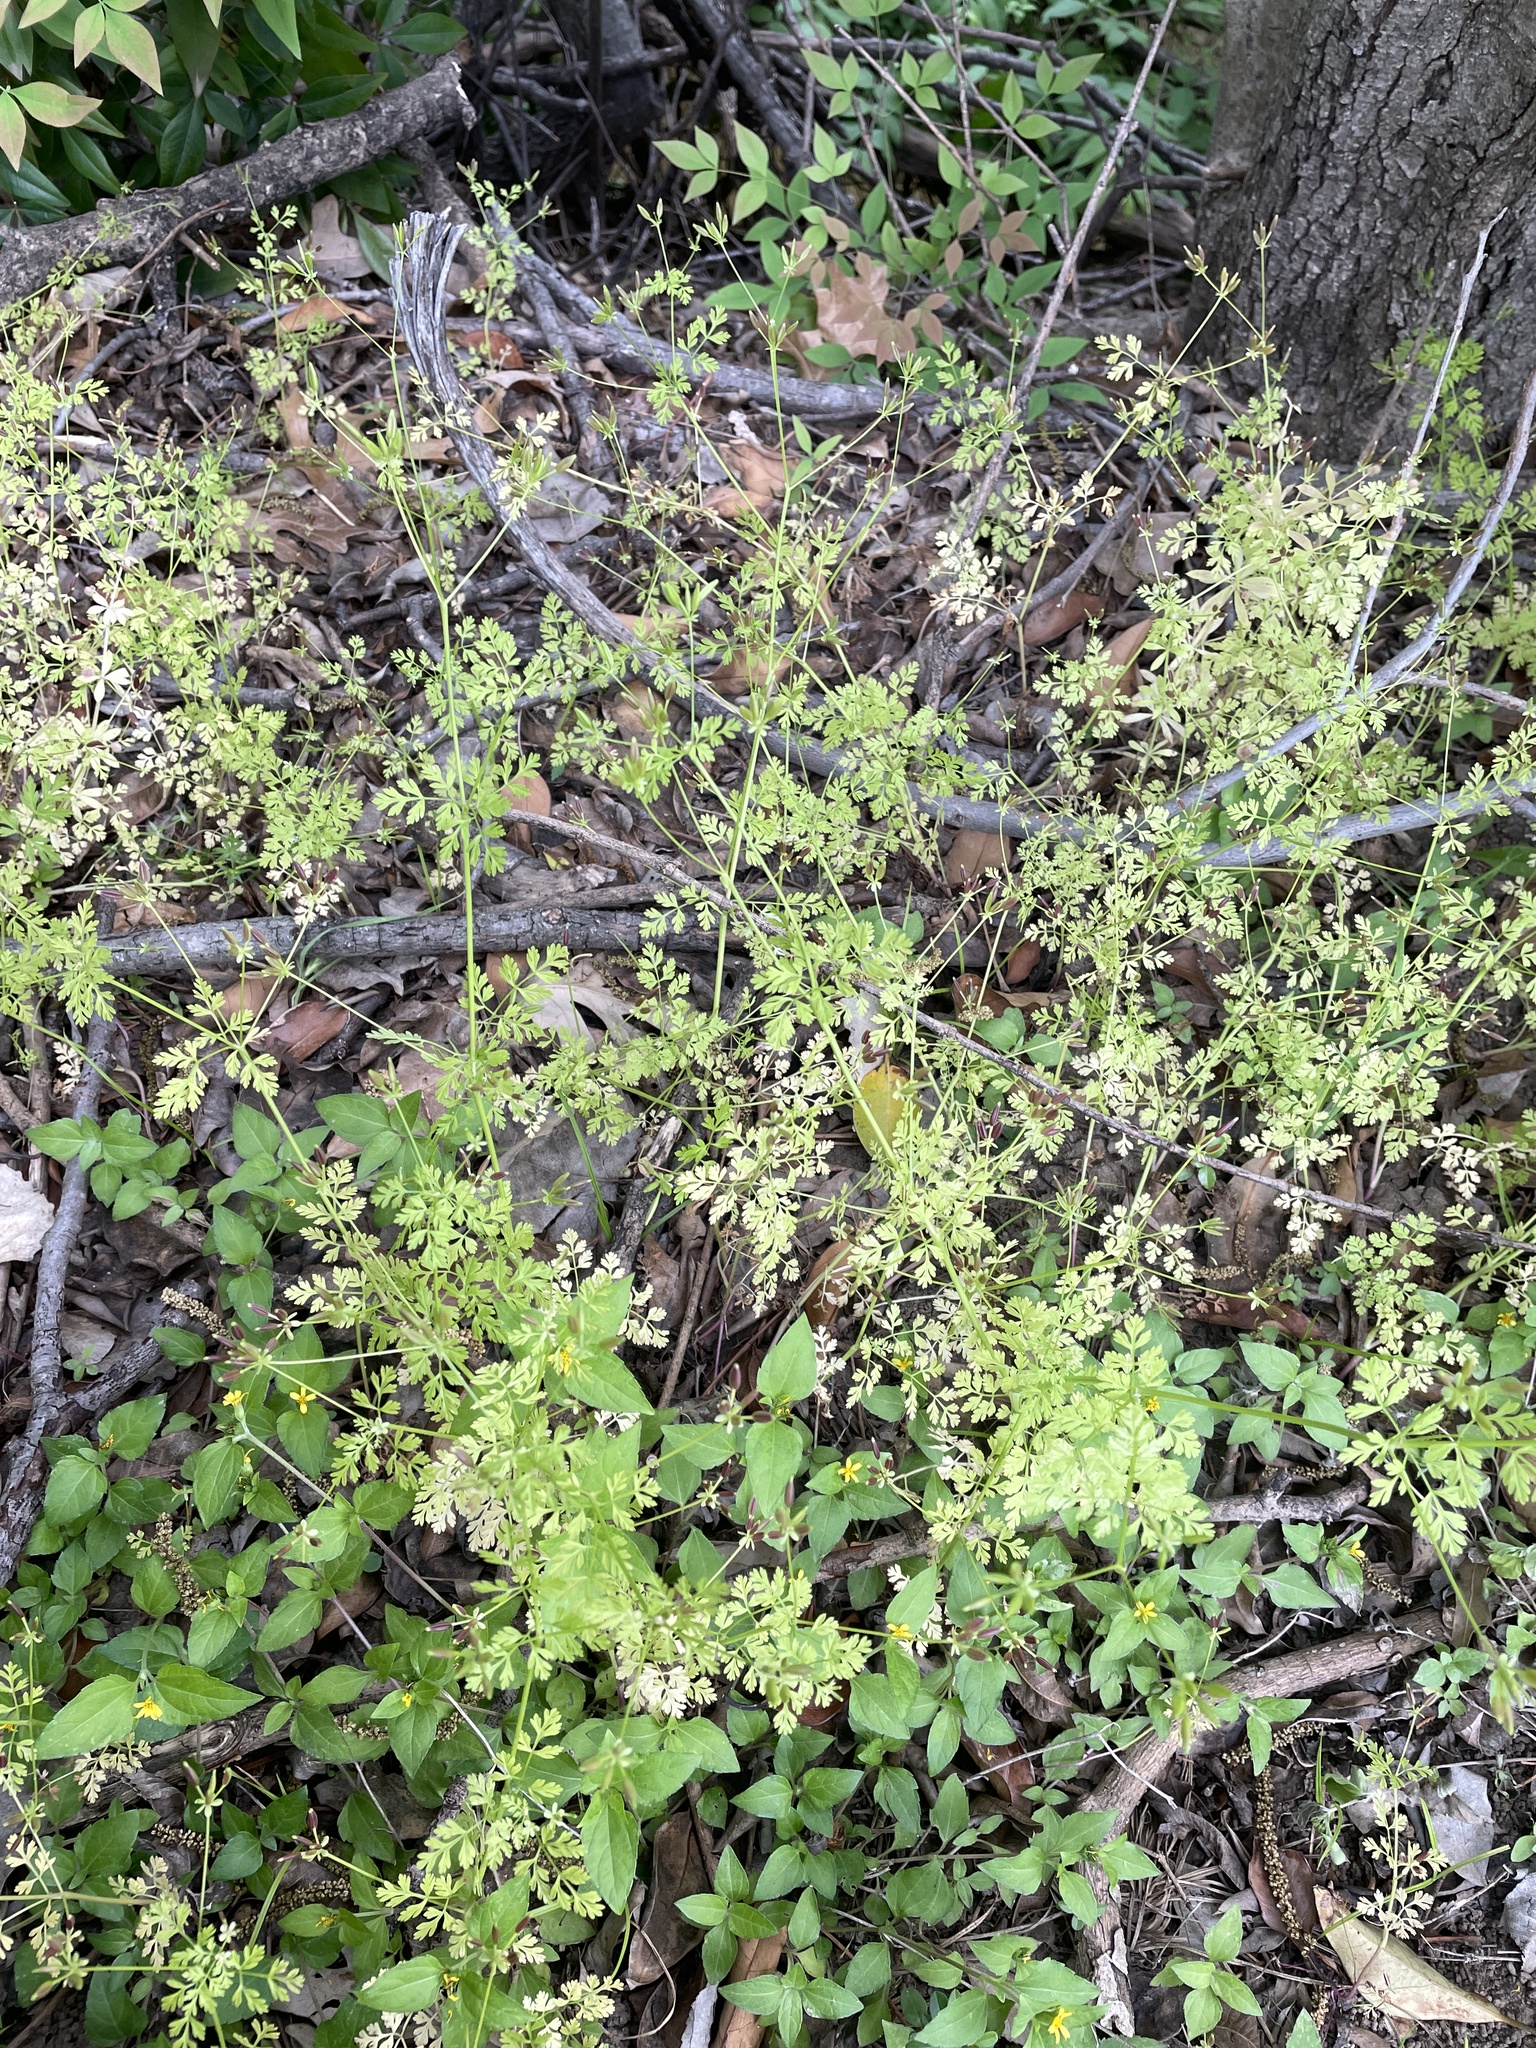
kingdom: Plantae
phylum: Tracheophyta
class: Magnoliopsida
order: Apiales
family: Apiaceae
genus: Chaerophyllum
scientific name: Chaerophyllum tainturieri
